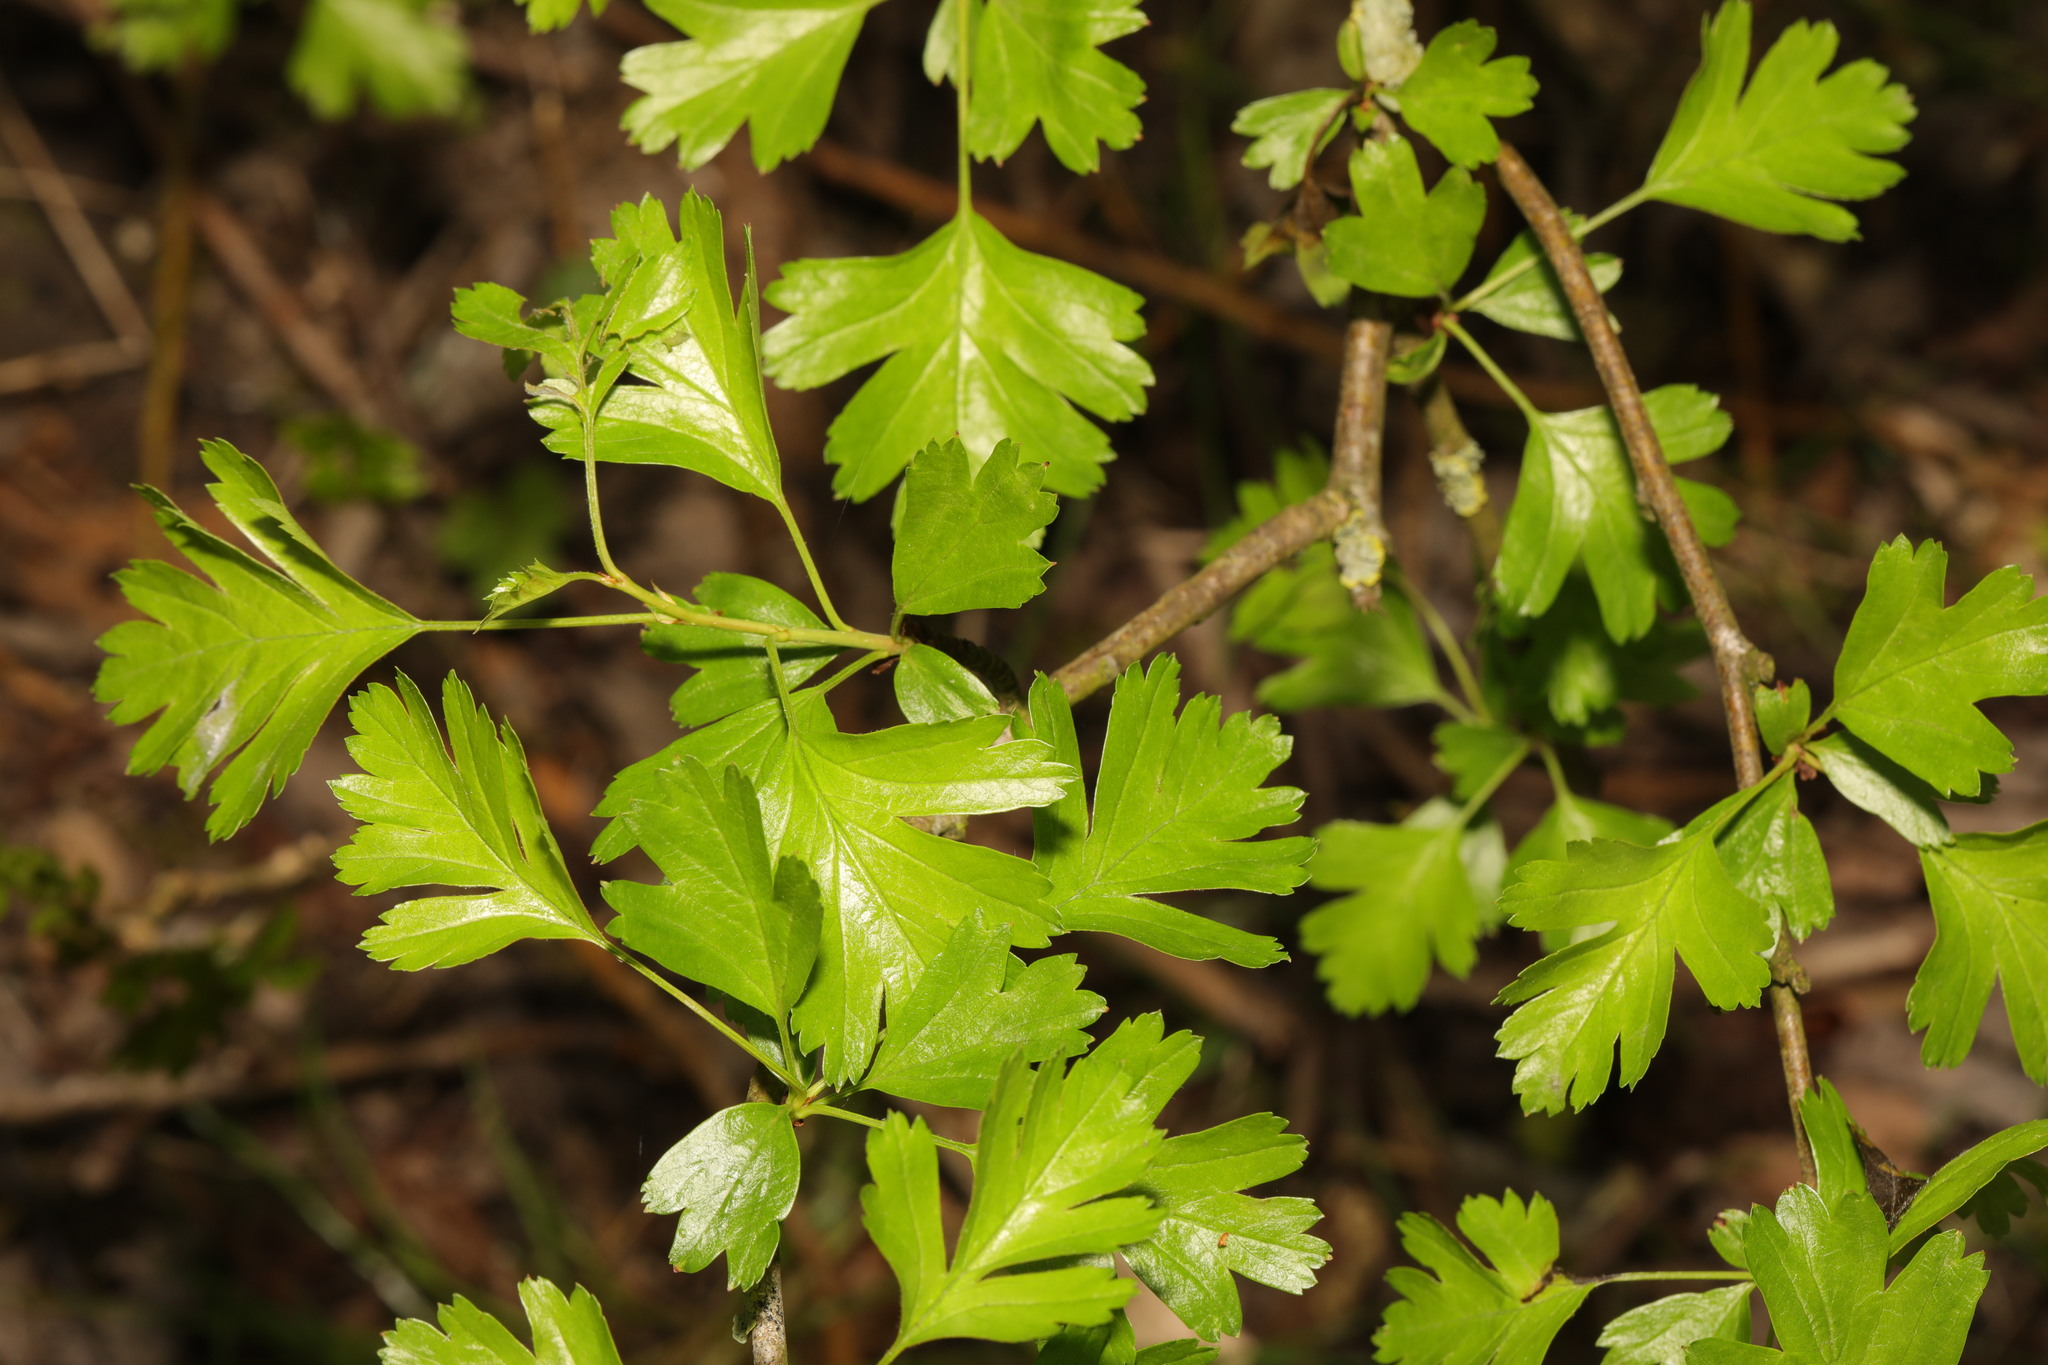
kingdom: Plantae
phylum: Tracheophyta
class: Magnoliopsida
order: Rosales
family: Rosaceae
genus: Crataegus
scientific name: Crataegus monogyna
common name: Hawthorn
